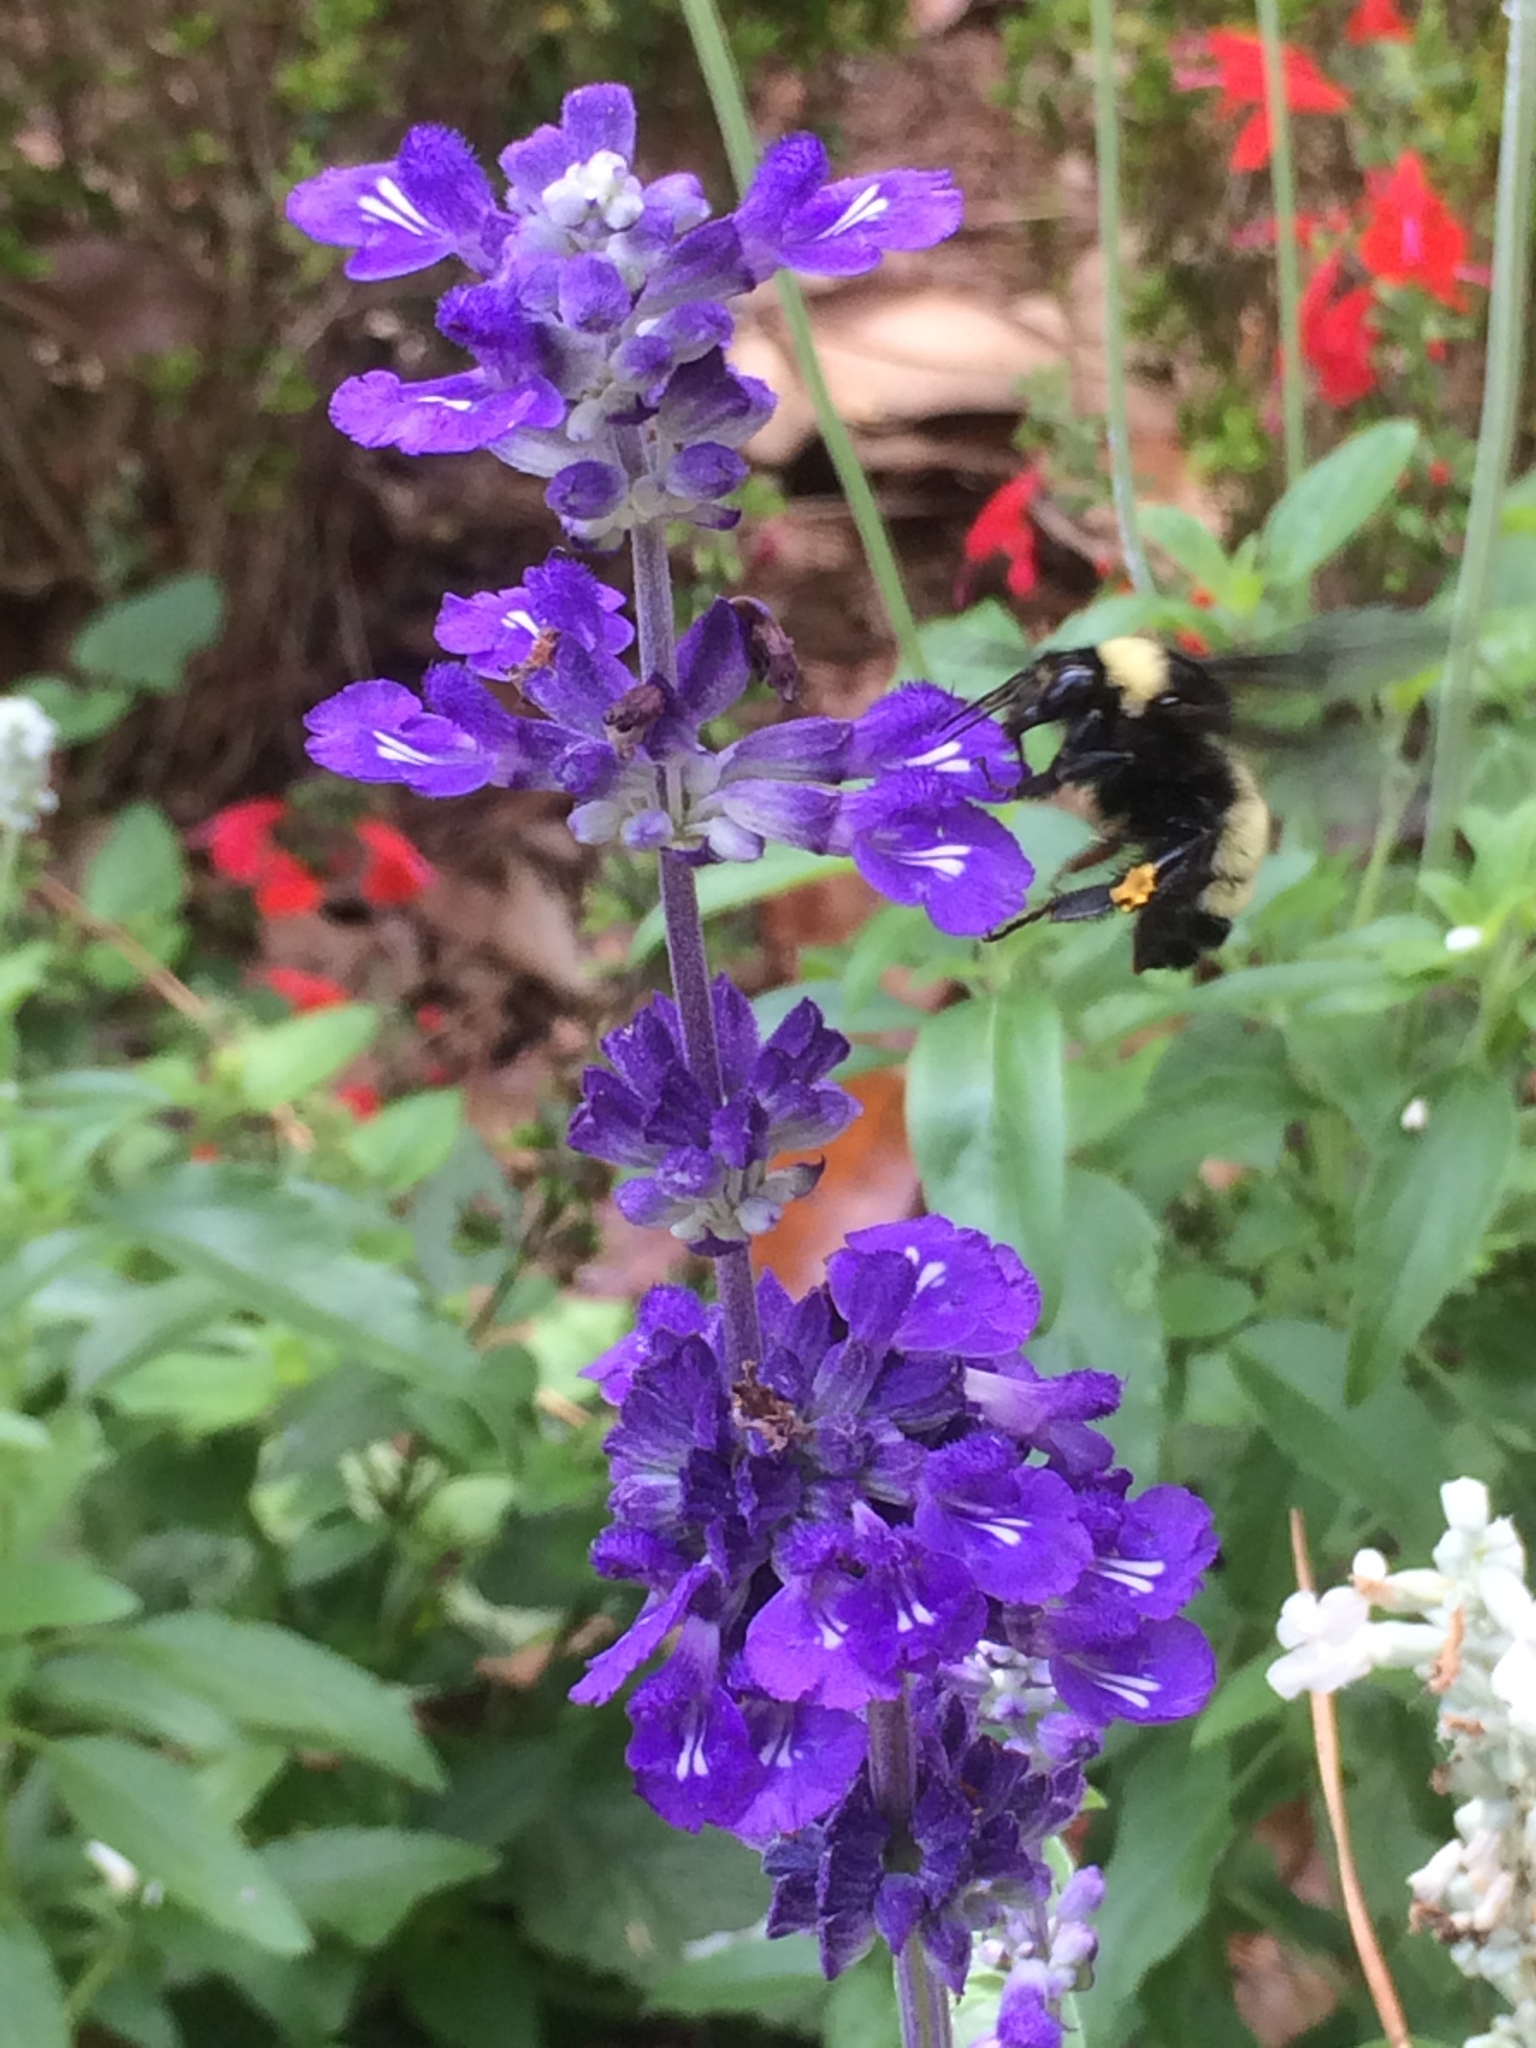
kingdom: Animalia
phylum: Arthropoda
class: Insecta
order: Hymenoptera
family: Apidae
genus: Bombus
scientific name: Bombus pensylvanicus
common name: Bumble bee
